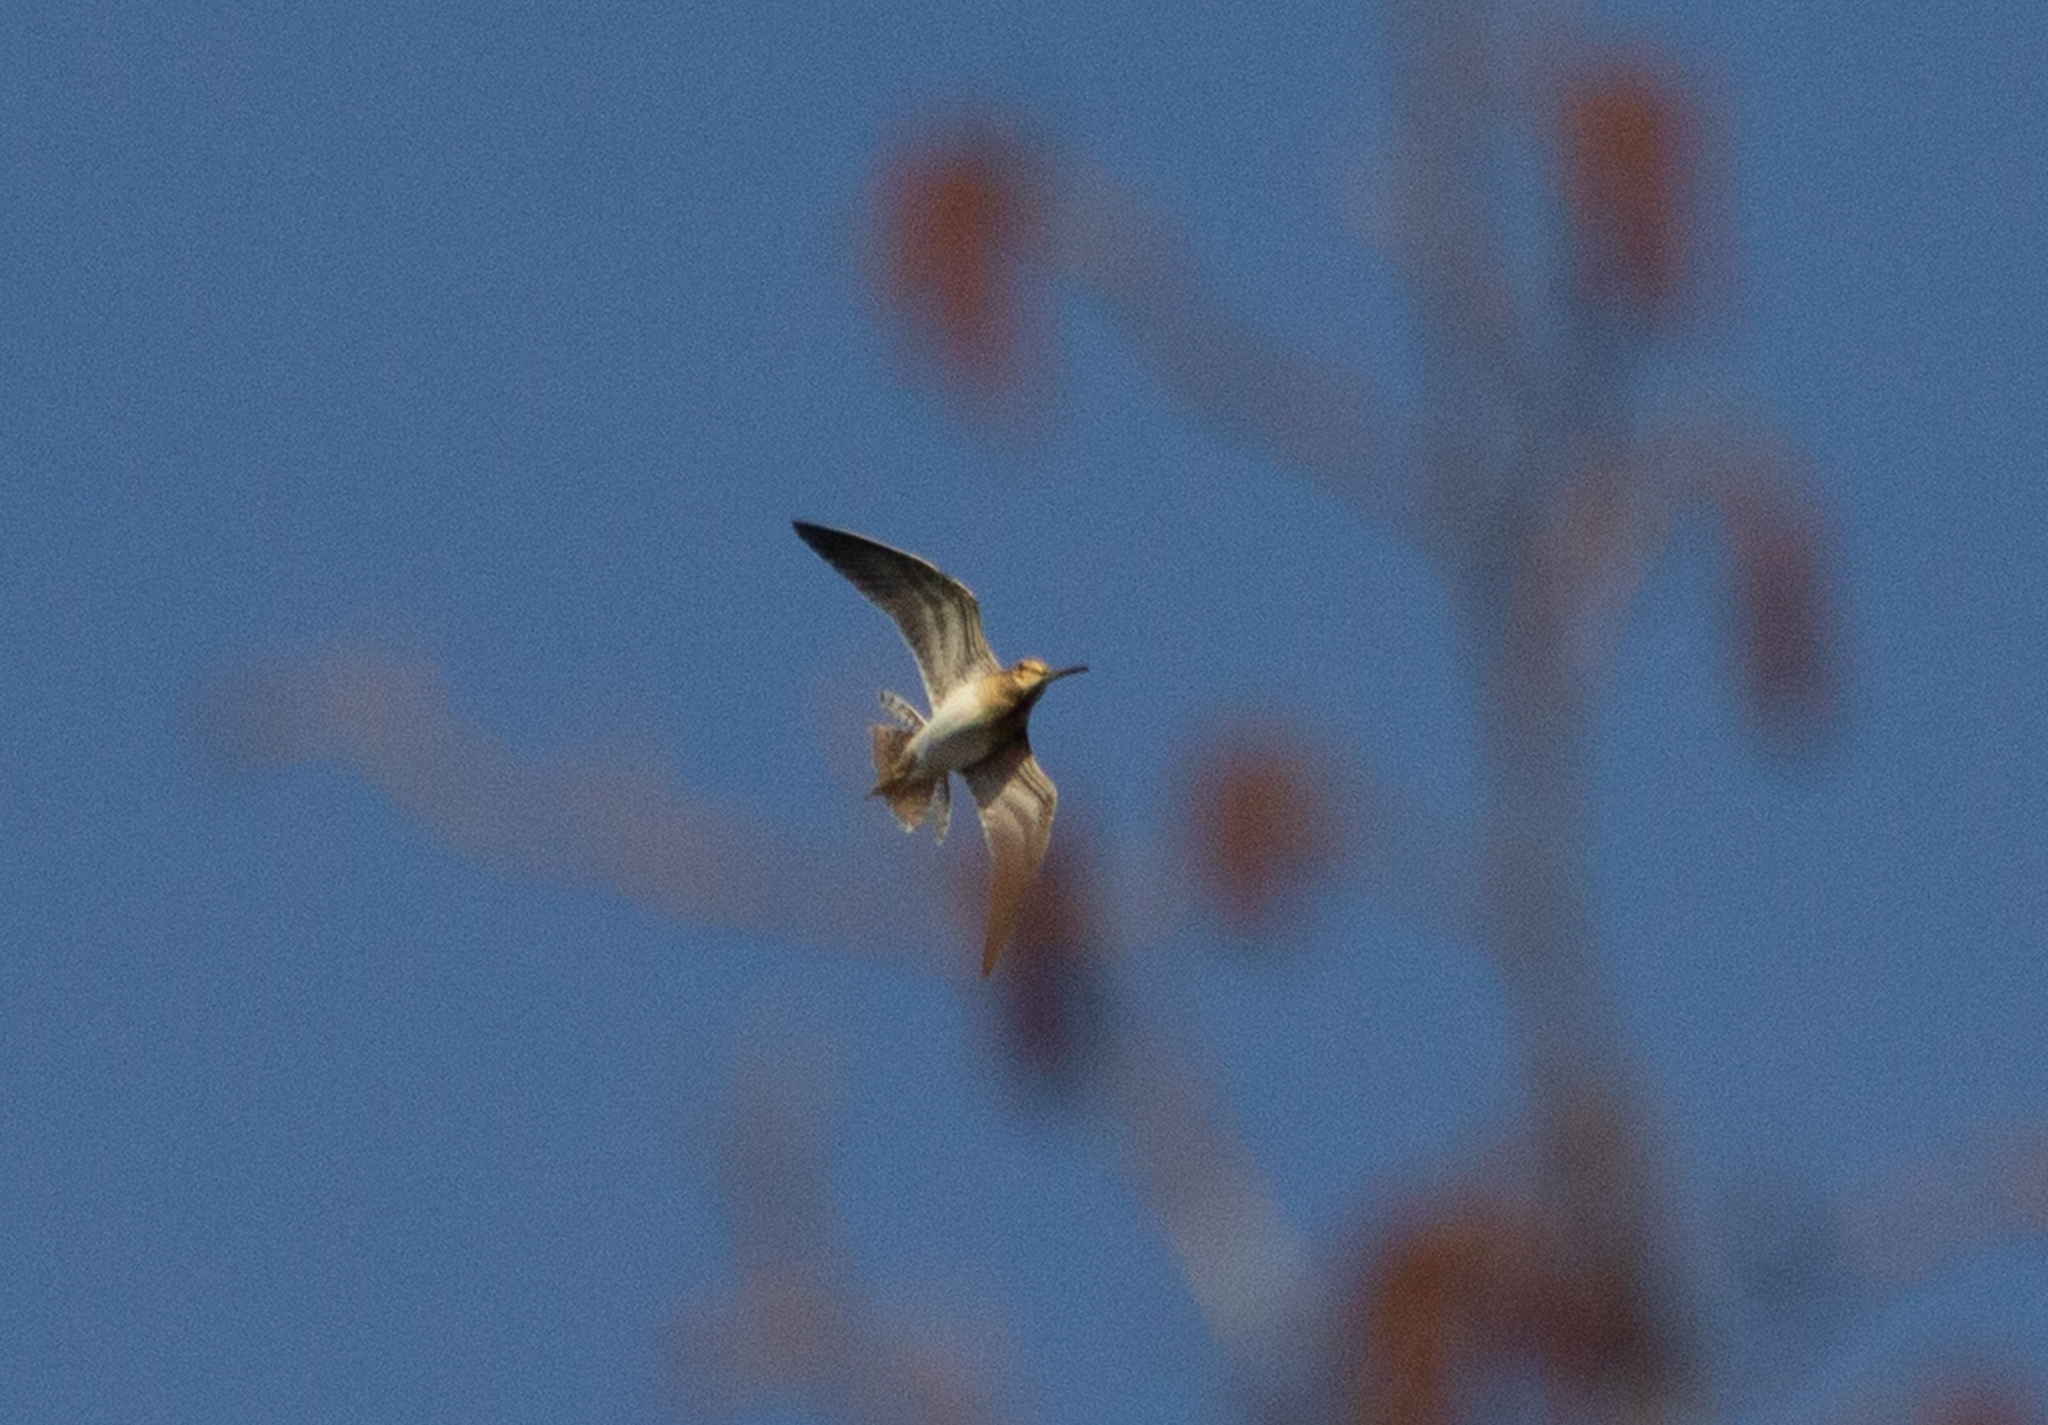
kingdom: Animalia
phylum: Chordata
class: Aves
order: Charadriiformes
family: Scolopacidae
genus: Gallinago
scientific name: Gallinago gallinago
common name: Common snipe
